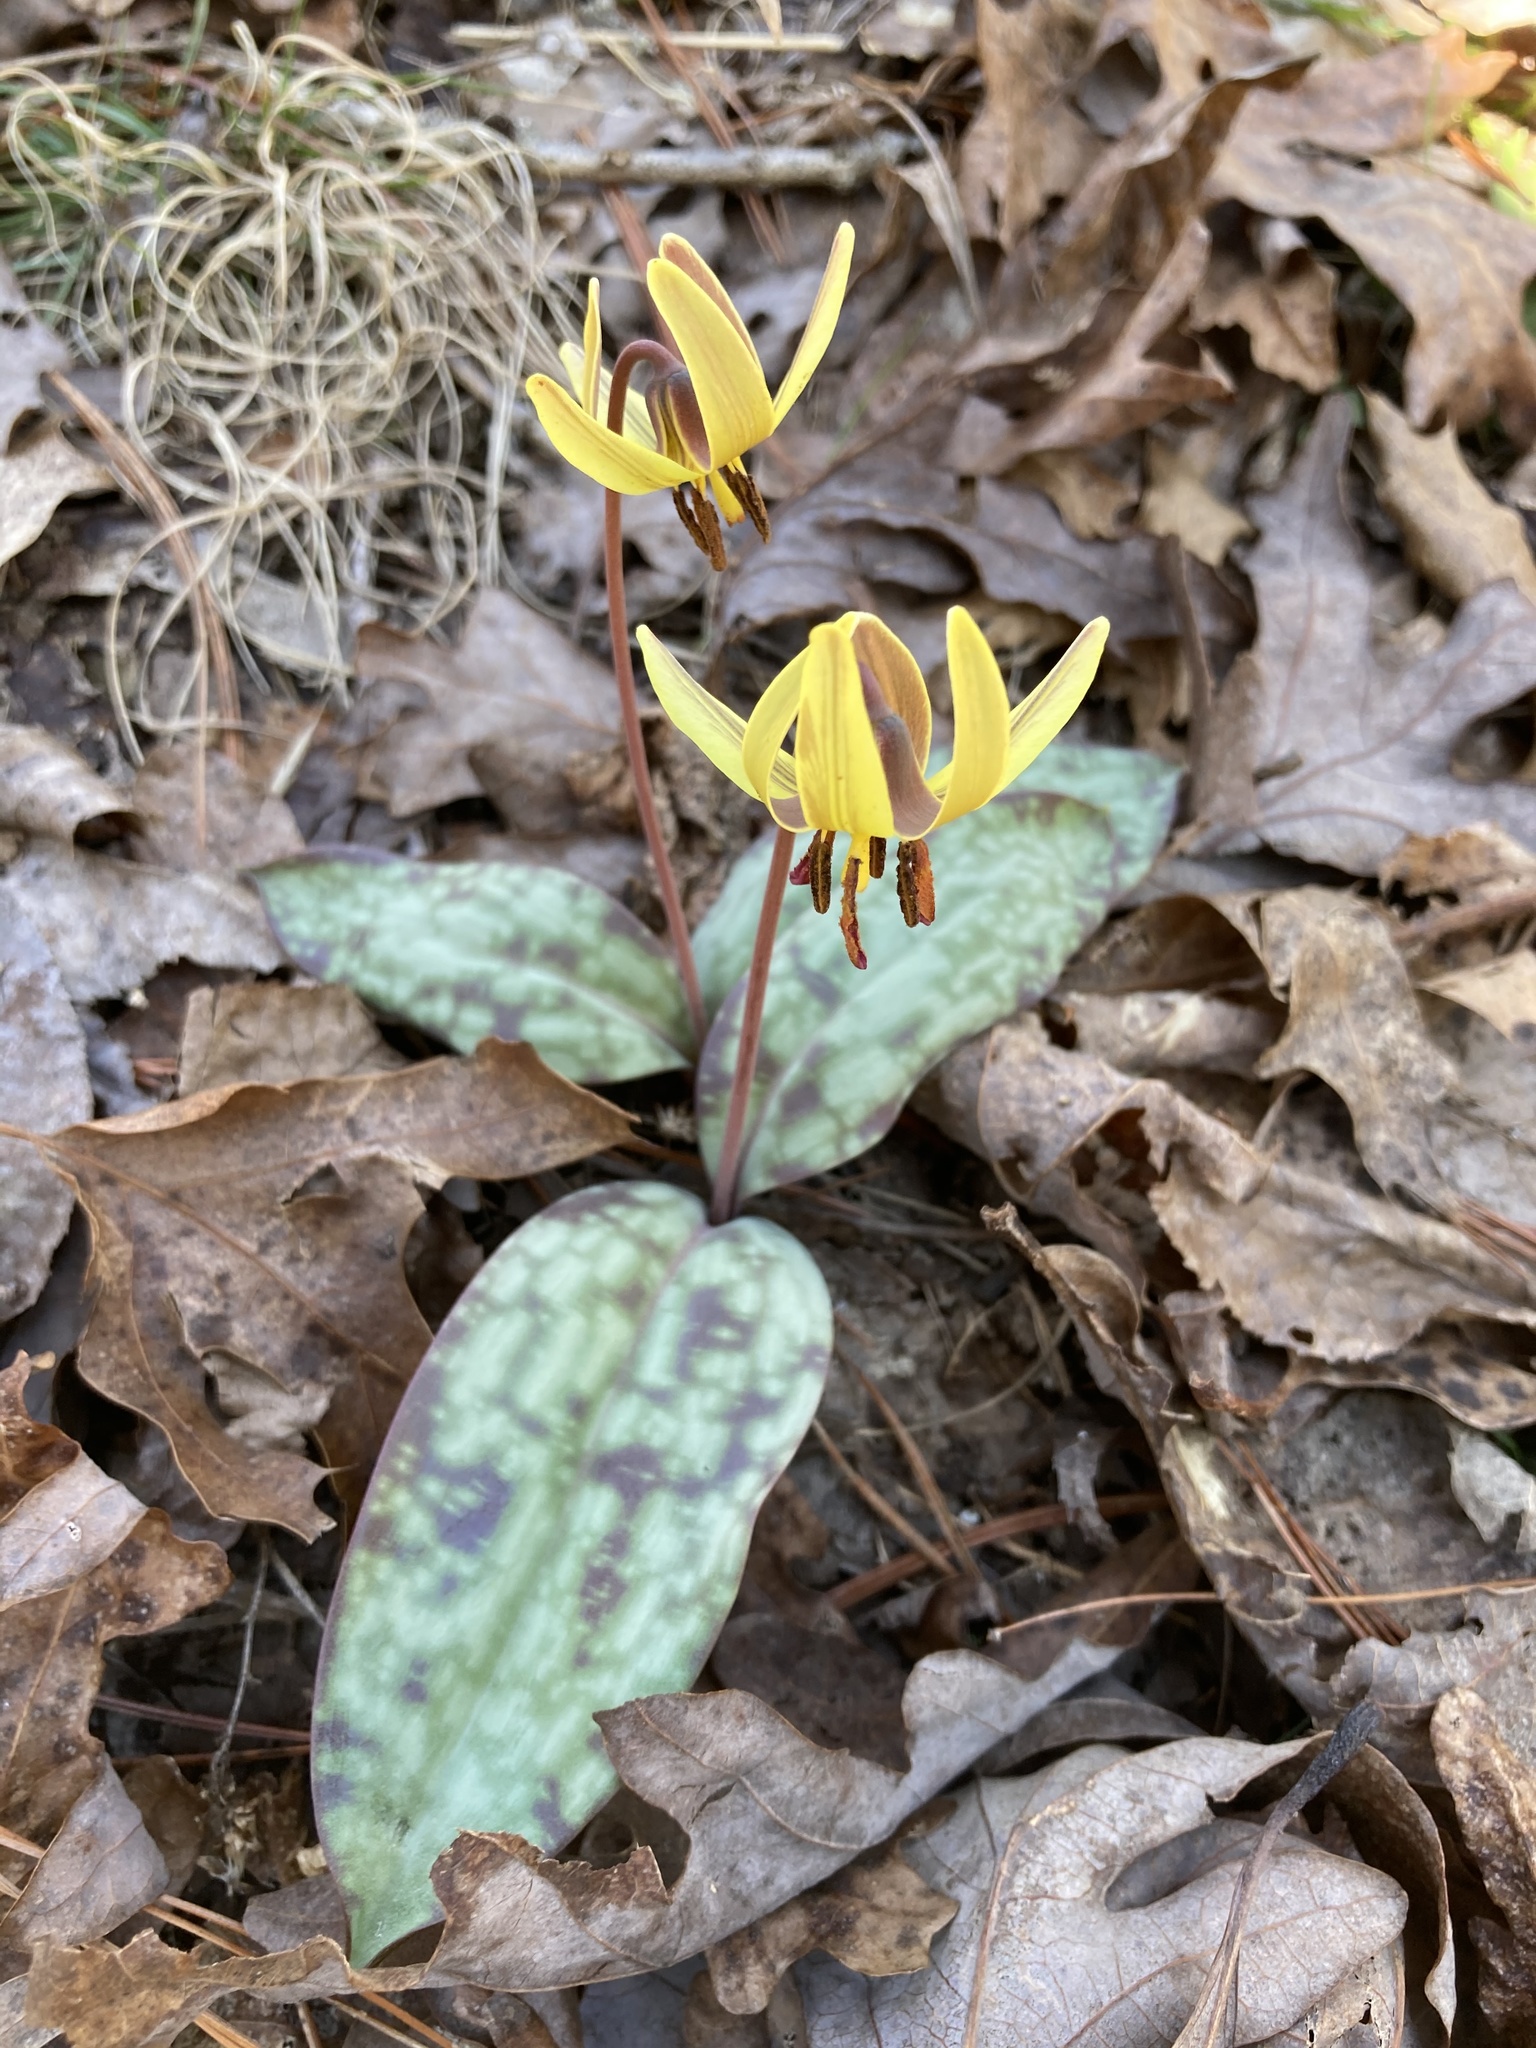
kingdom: Plantae
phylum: Tracheophyta
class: Liliopsida
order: Liliales
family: Liliaceae
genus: Erythronium
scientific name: Erythronium umbilicatum
